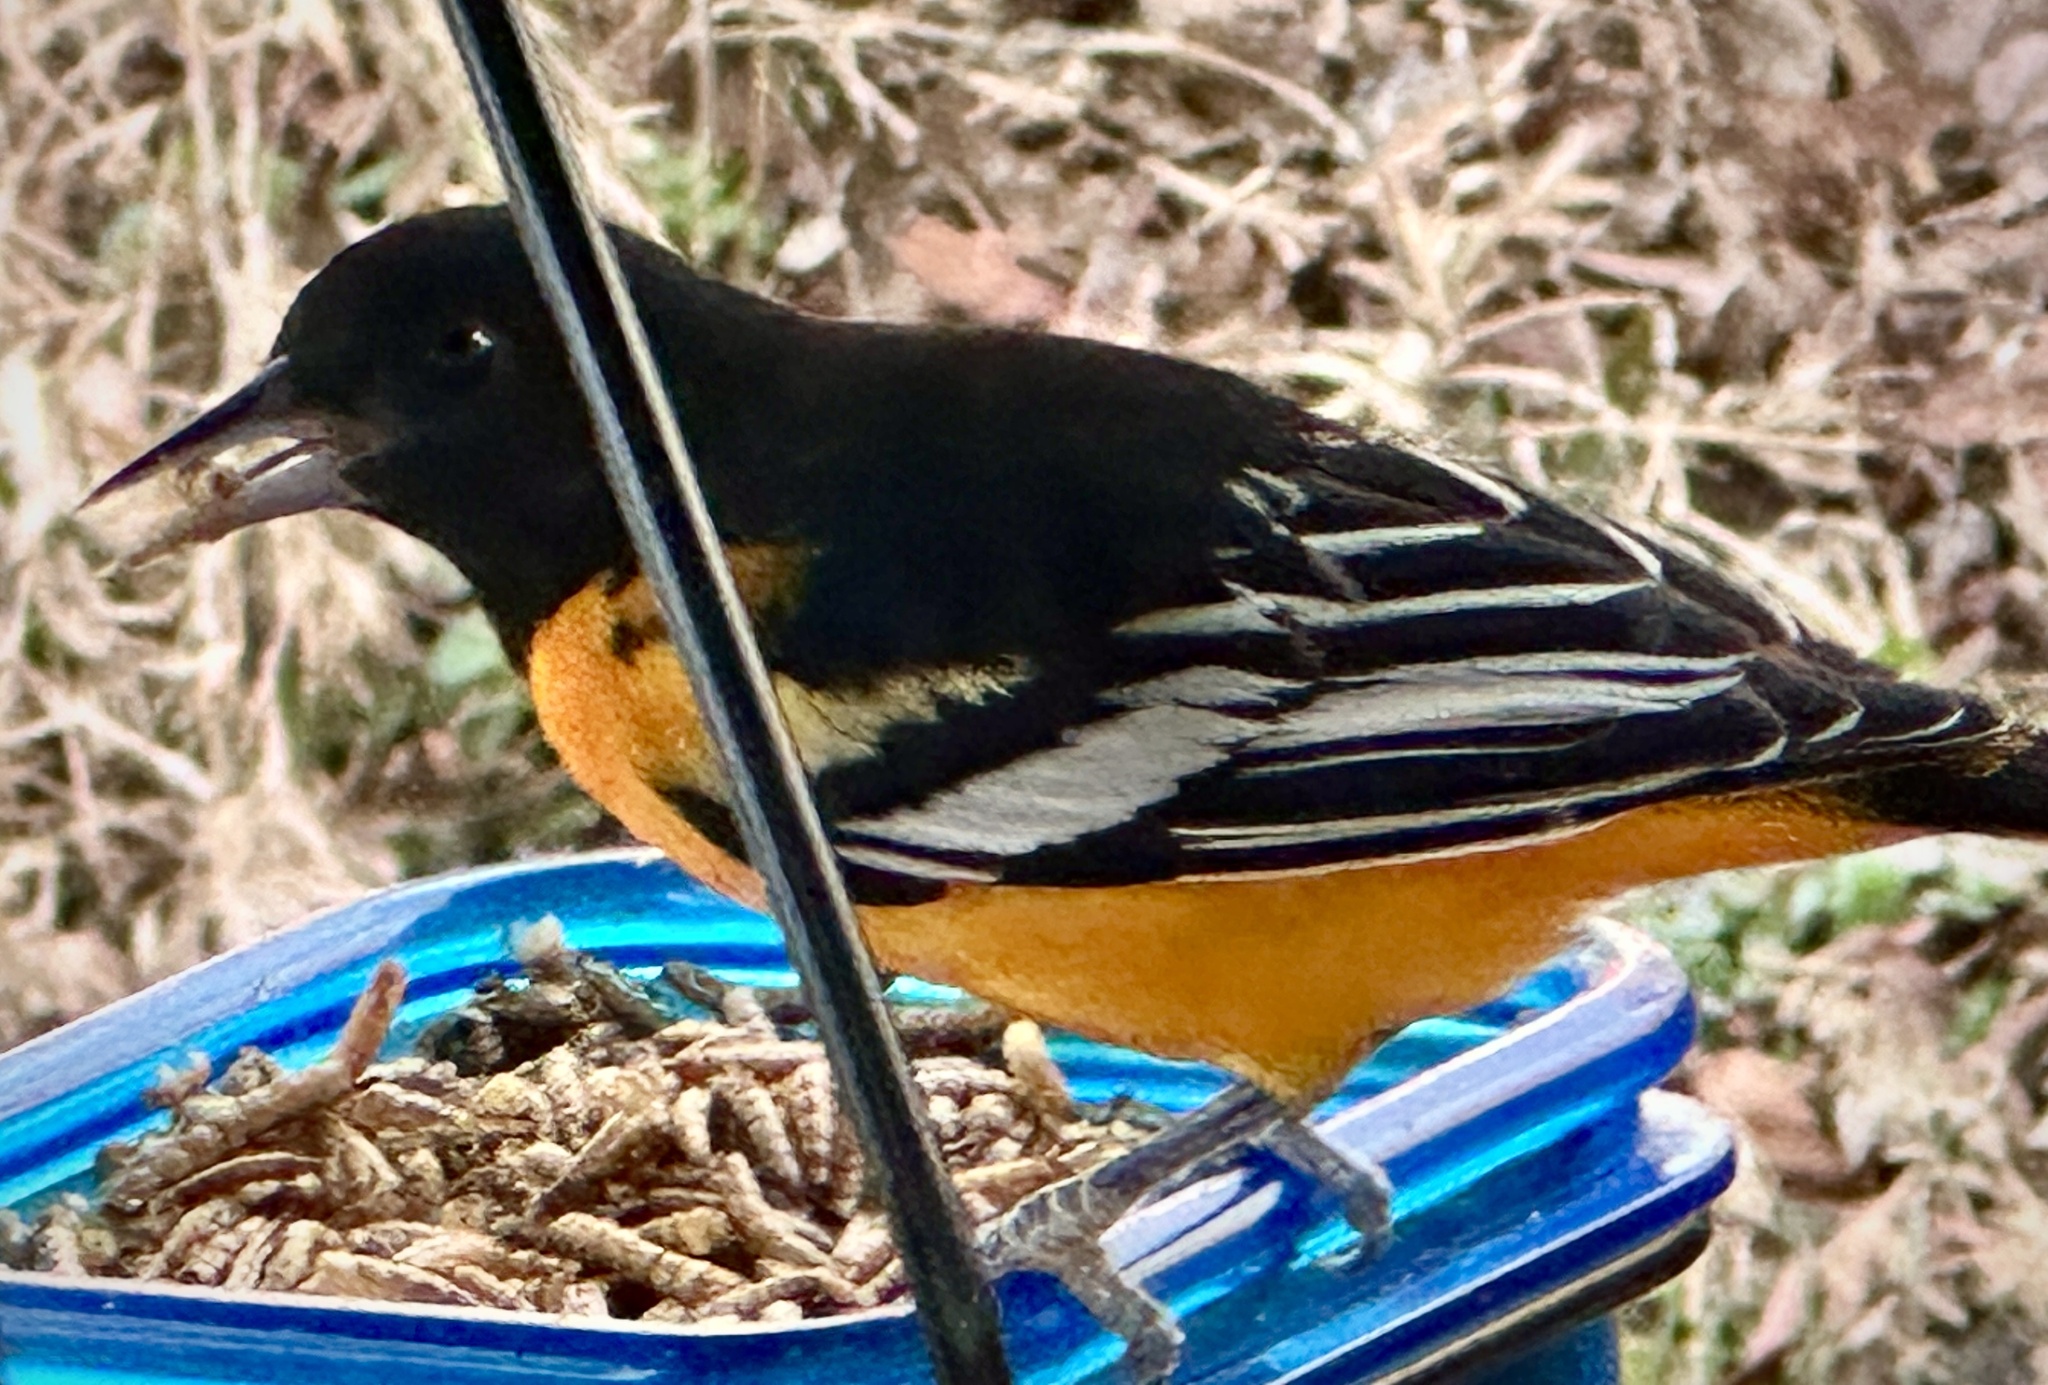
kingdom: Animalia
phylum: Chordata
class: Aves
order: Passeriformes
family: Icteridae
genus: Icterus
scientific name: Icterus galbula
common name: Baltimore oriole
